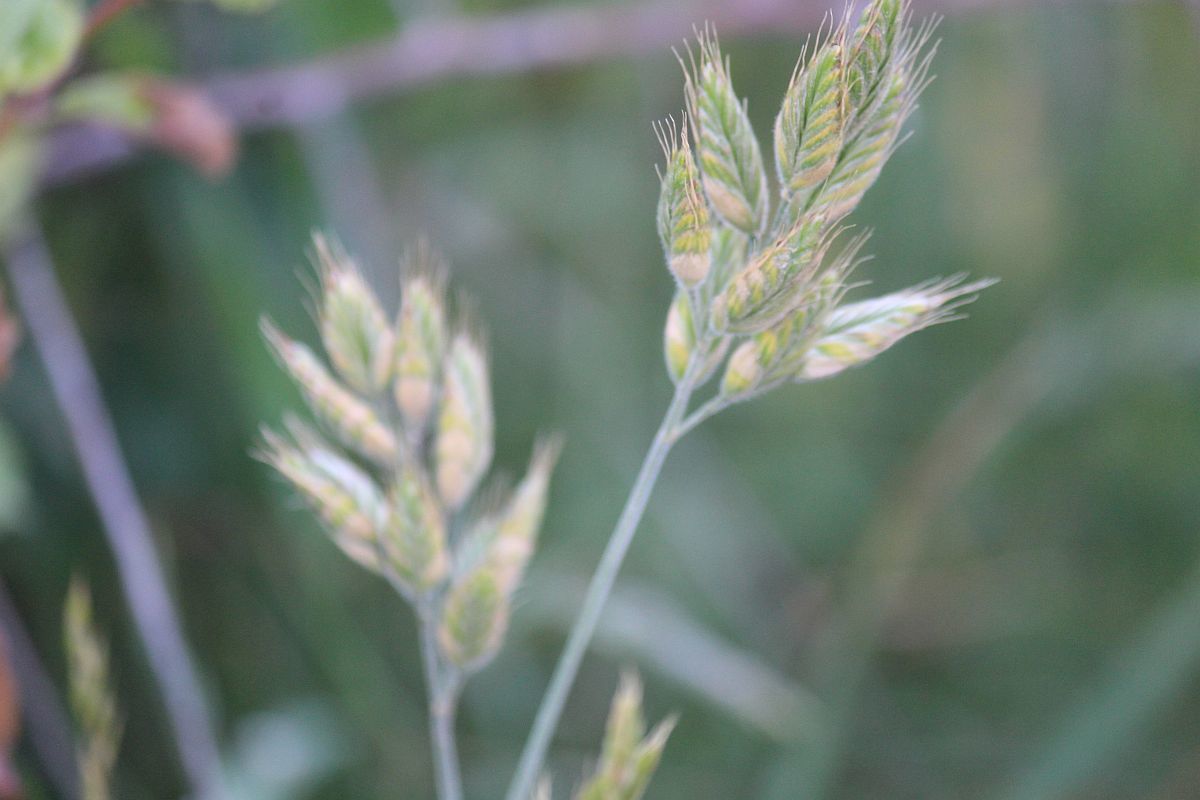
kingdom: Plantae
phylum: Tracheophyta
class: Liliopsida
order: Poales
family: Poaceae
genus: Bromus
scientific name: Bromus hordeaceus
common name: Soft brome
